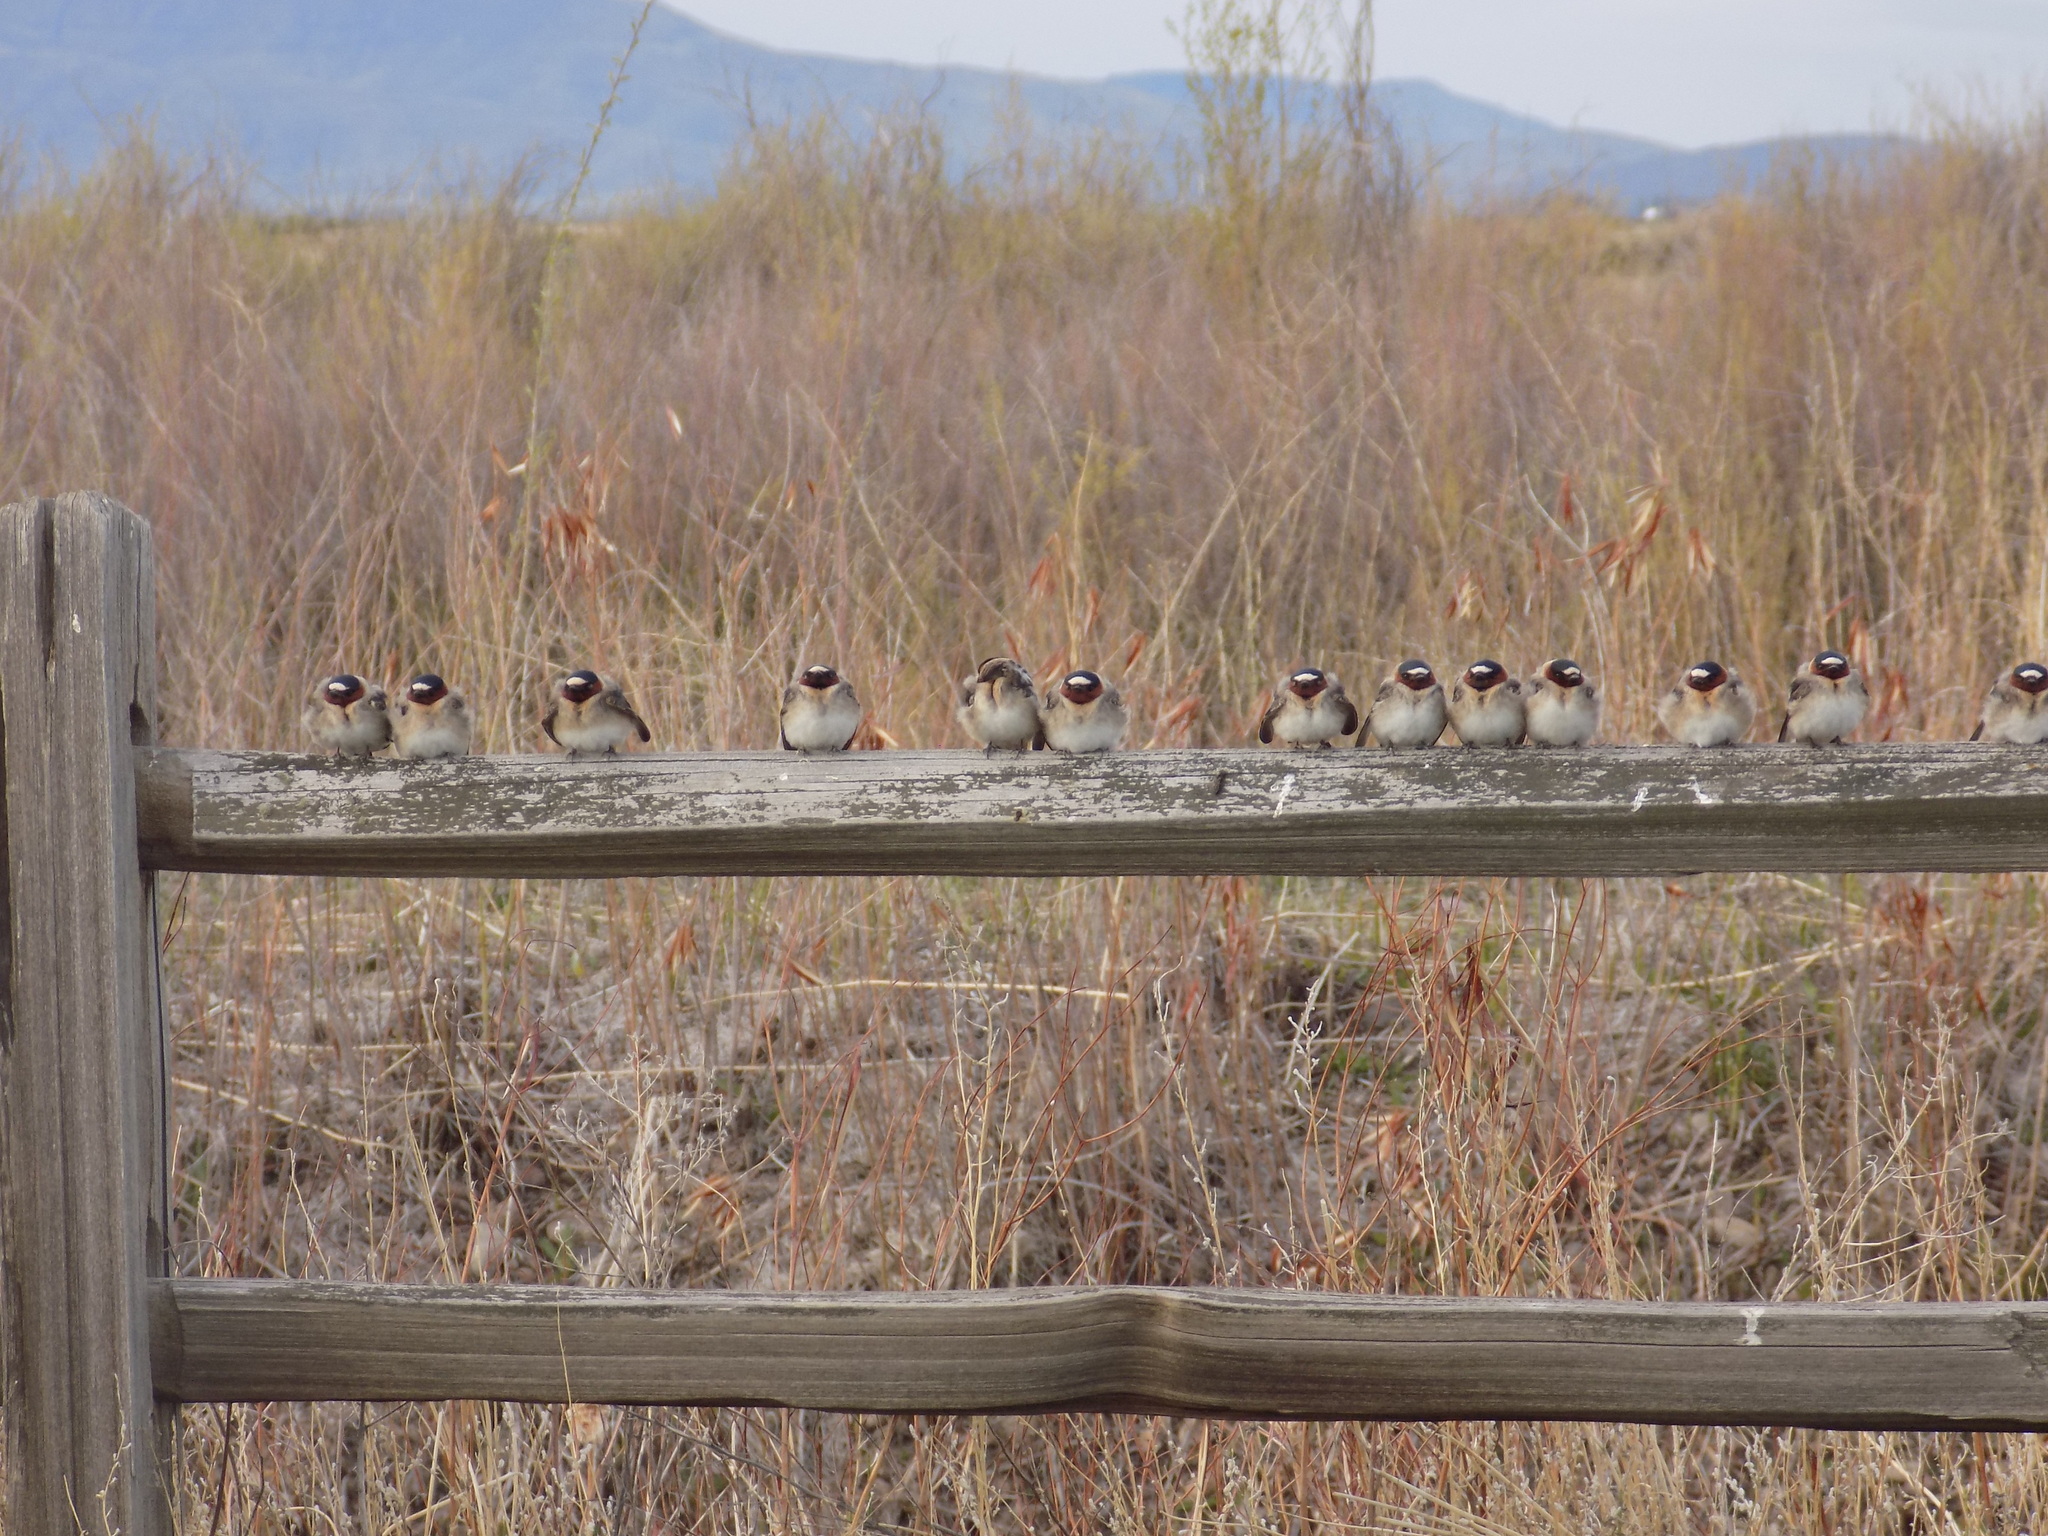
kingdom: Animalia
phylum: Chordata
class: Aves
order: Passeriformes
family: Hirundinidae
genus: Petrochelidon
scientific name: Petrochelidon pyrrhonota
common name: American cliff swallow
